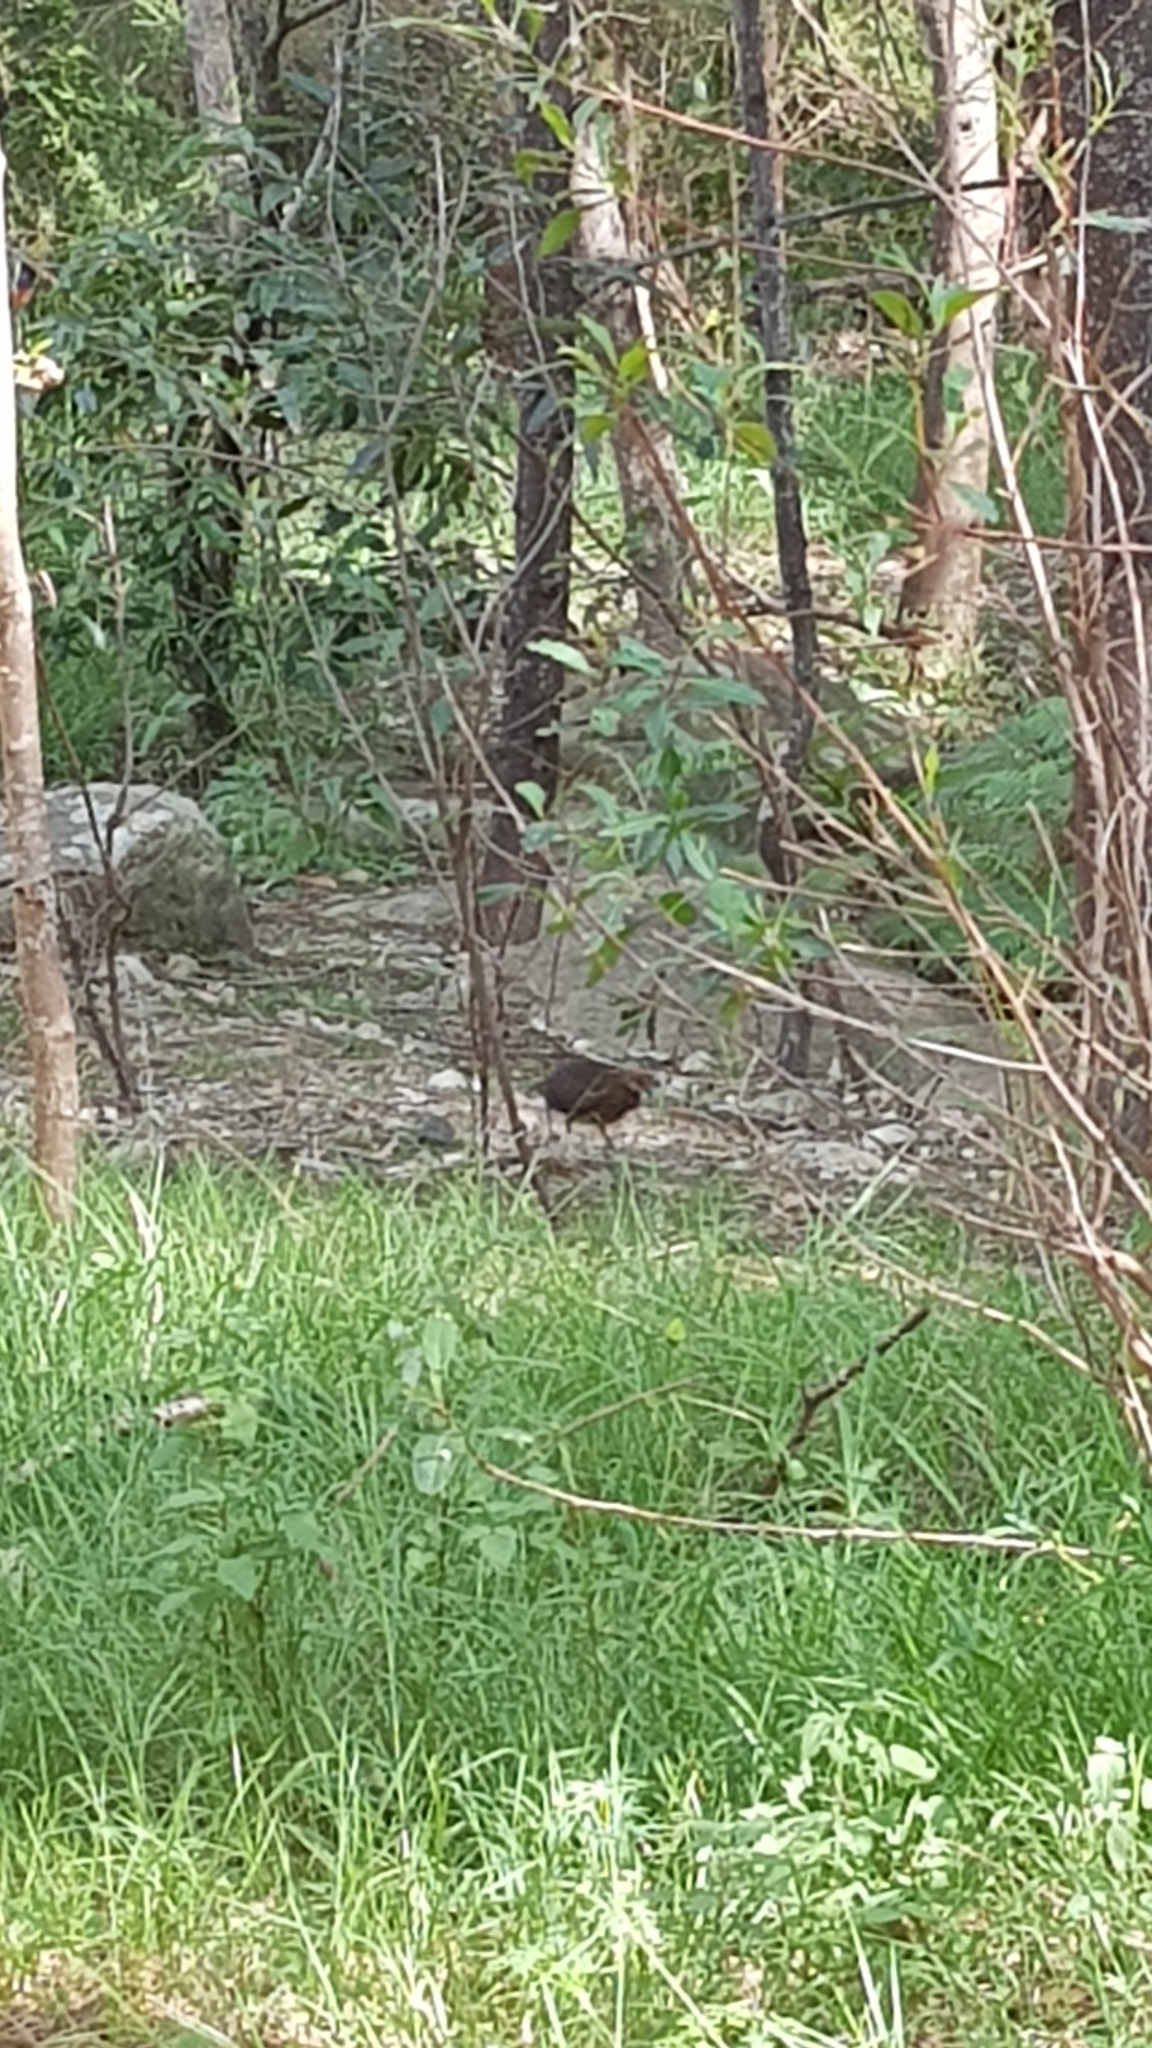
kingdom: Animalia
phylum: Chordata
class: Aves
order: Galliformes
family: Megapodiidae
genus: Alectura
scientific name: Alectura lathami
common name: Australian brushturkey
